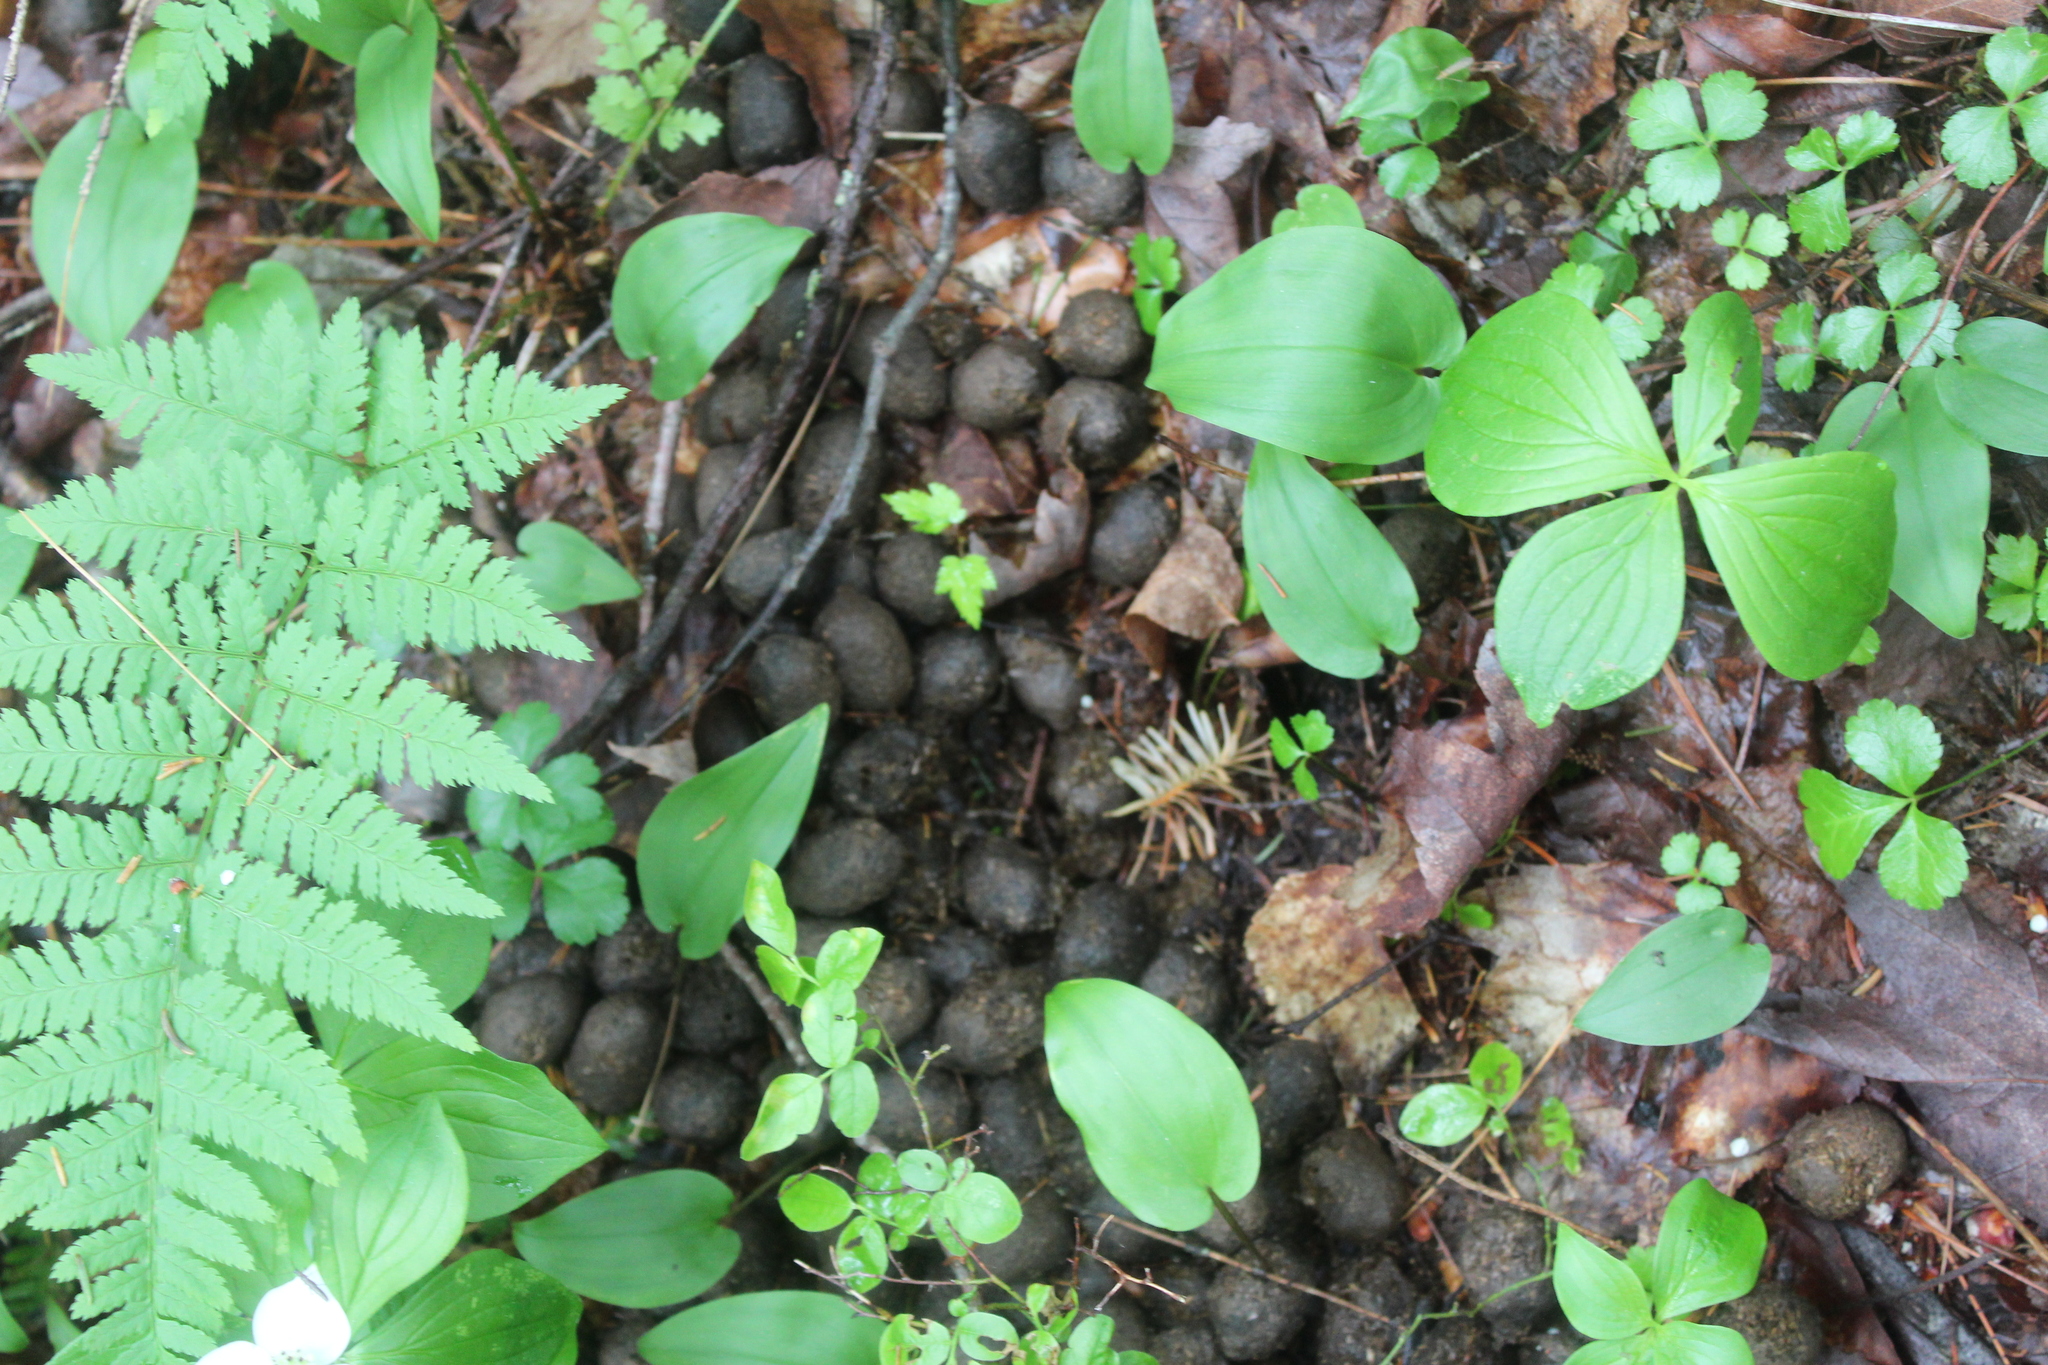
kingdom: Animalia
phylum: Chordata
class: Mammalia
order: Artiodactyla
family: Cervidae
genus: Alces
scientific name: Alces alces
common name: Moose
